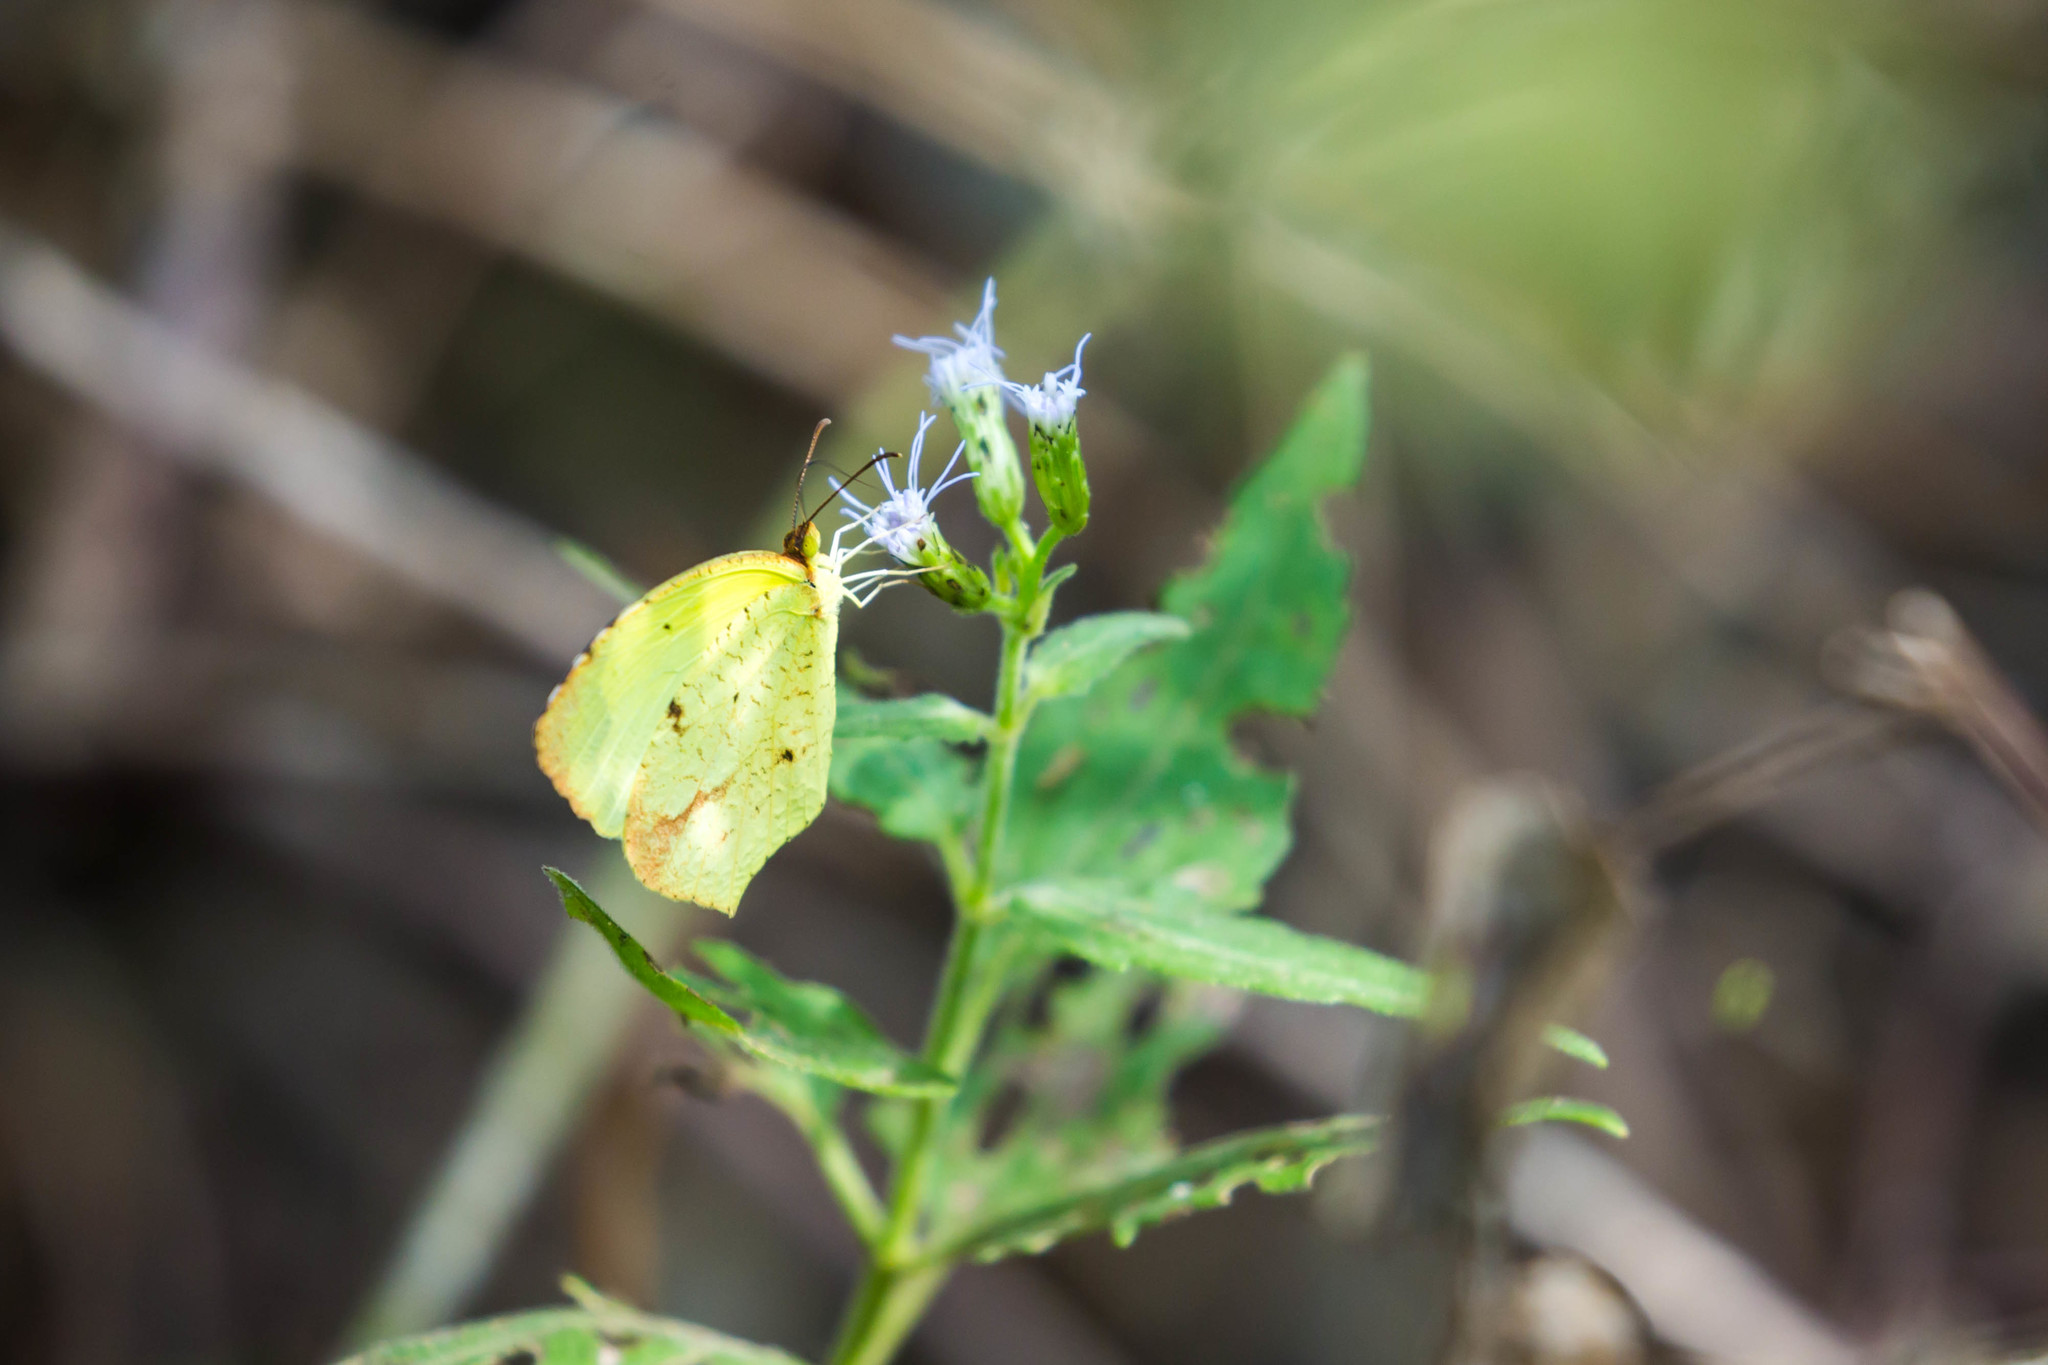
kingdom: Animalia
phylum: Arthropoda
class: Insecta
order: Lepidoptera
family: Pieridae
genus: Abaeis
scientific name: Abaeis boisduvaliana
